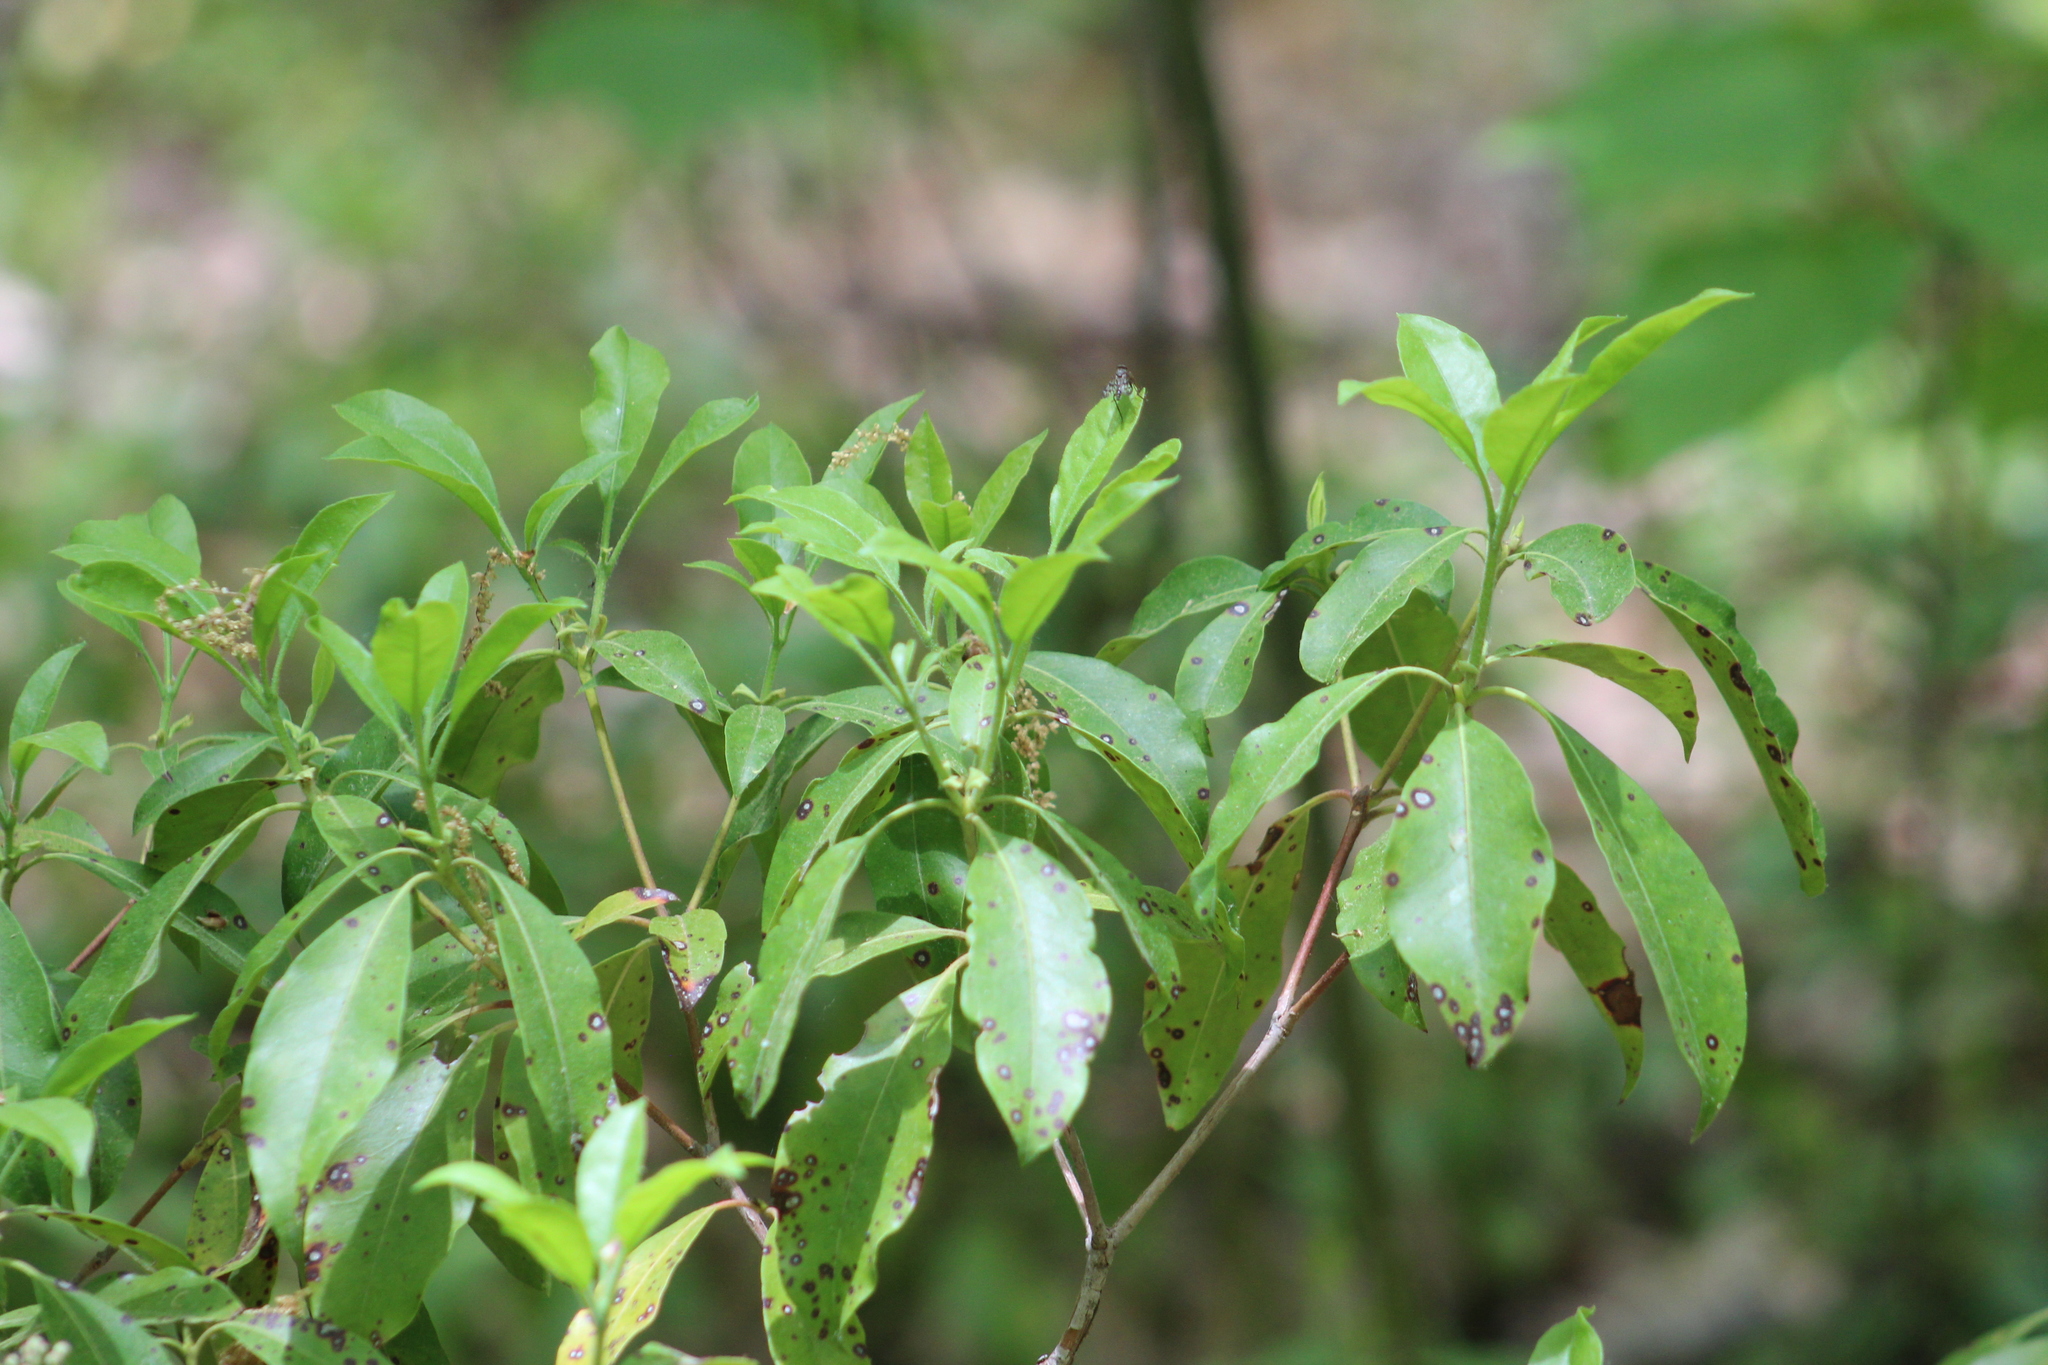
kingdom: Plantae
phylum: Tracheophyta
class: Magnoliopsida
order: Ericales
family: Ericaceae
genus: Kalmia
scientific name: Kalmia latifolia
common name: Mountain-laurel
